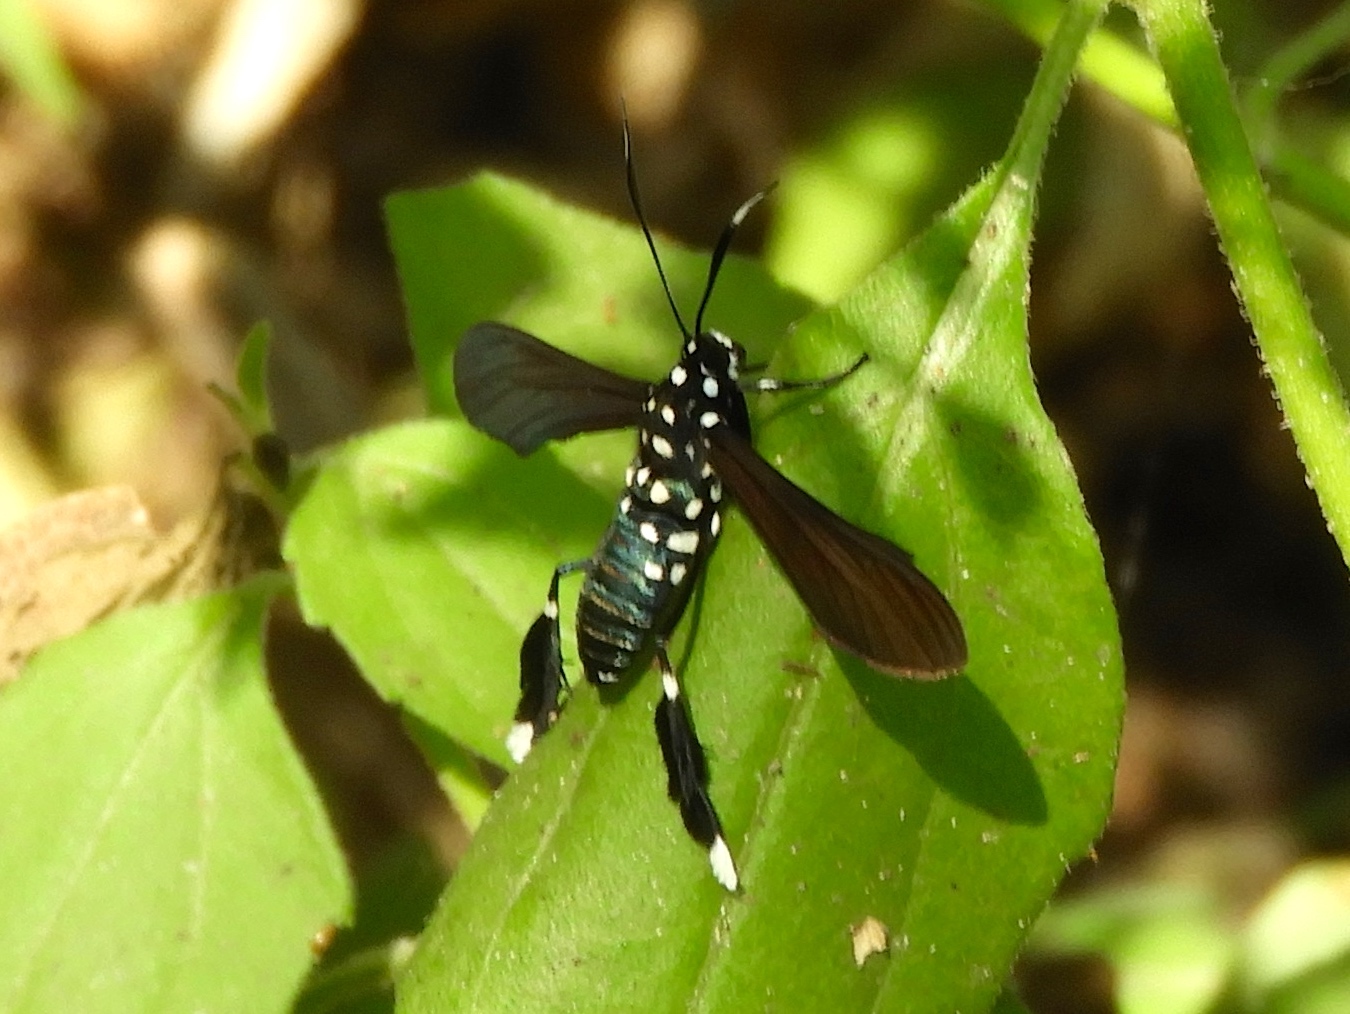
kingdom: Animalia
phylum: Arthropoda
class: Insecta
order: Lepidoptera
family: Erebidae
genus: Horama
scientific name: Horama plumipes
